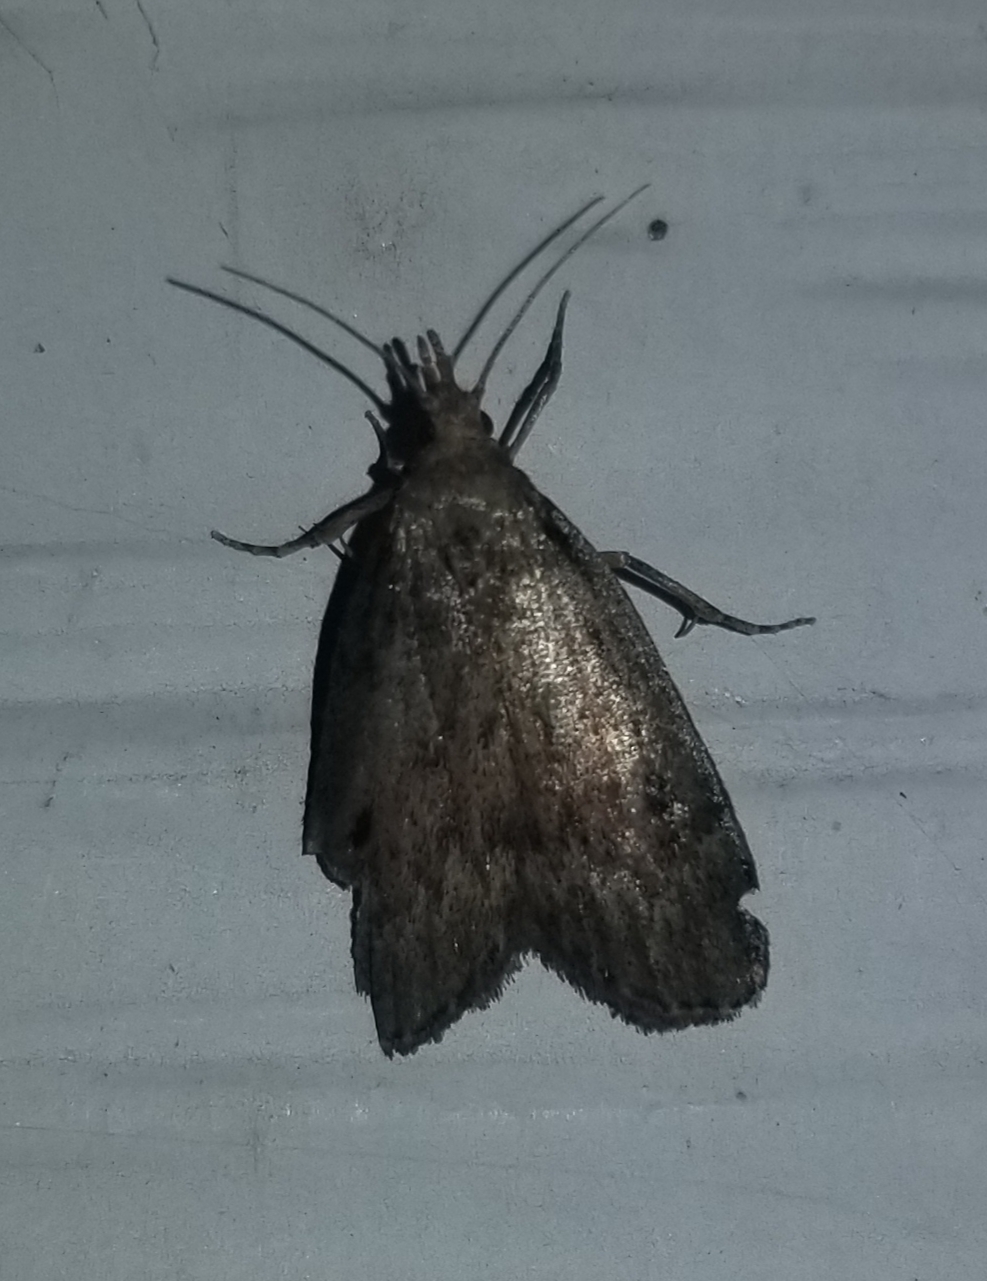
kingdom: Animalia
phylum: Arthropoda
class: Insecta
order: Lepidoptera
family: Pyralidae
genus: Aphomia
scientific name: Aphomia sociella
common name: Bee moth
